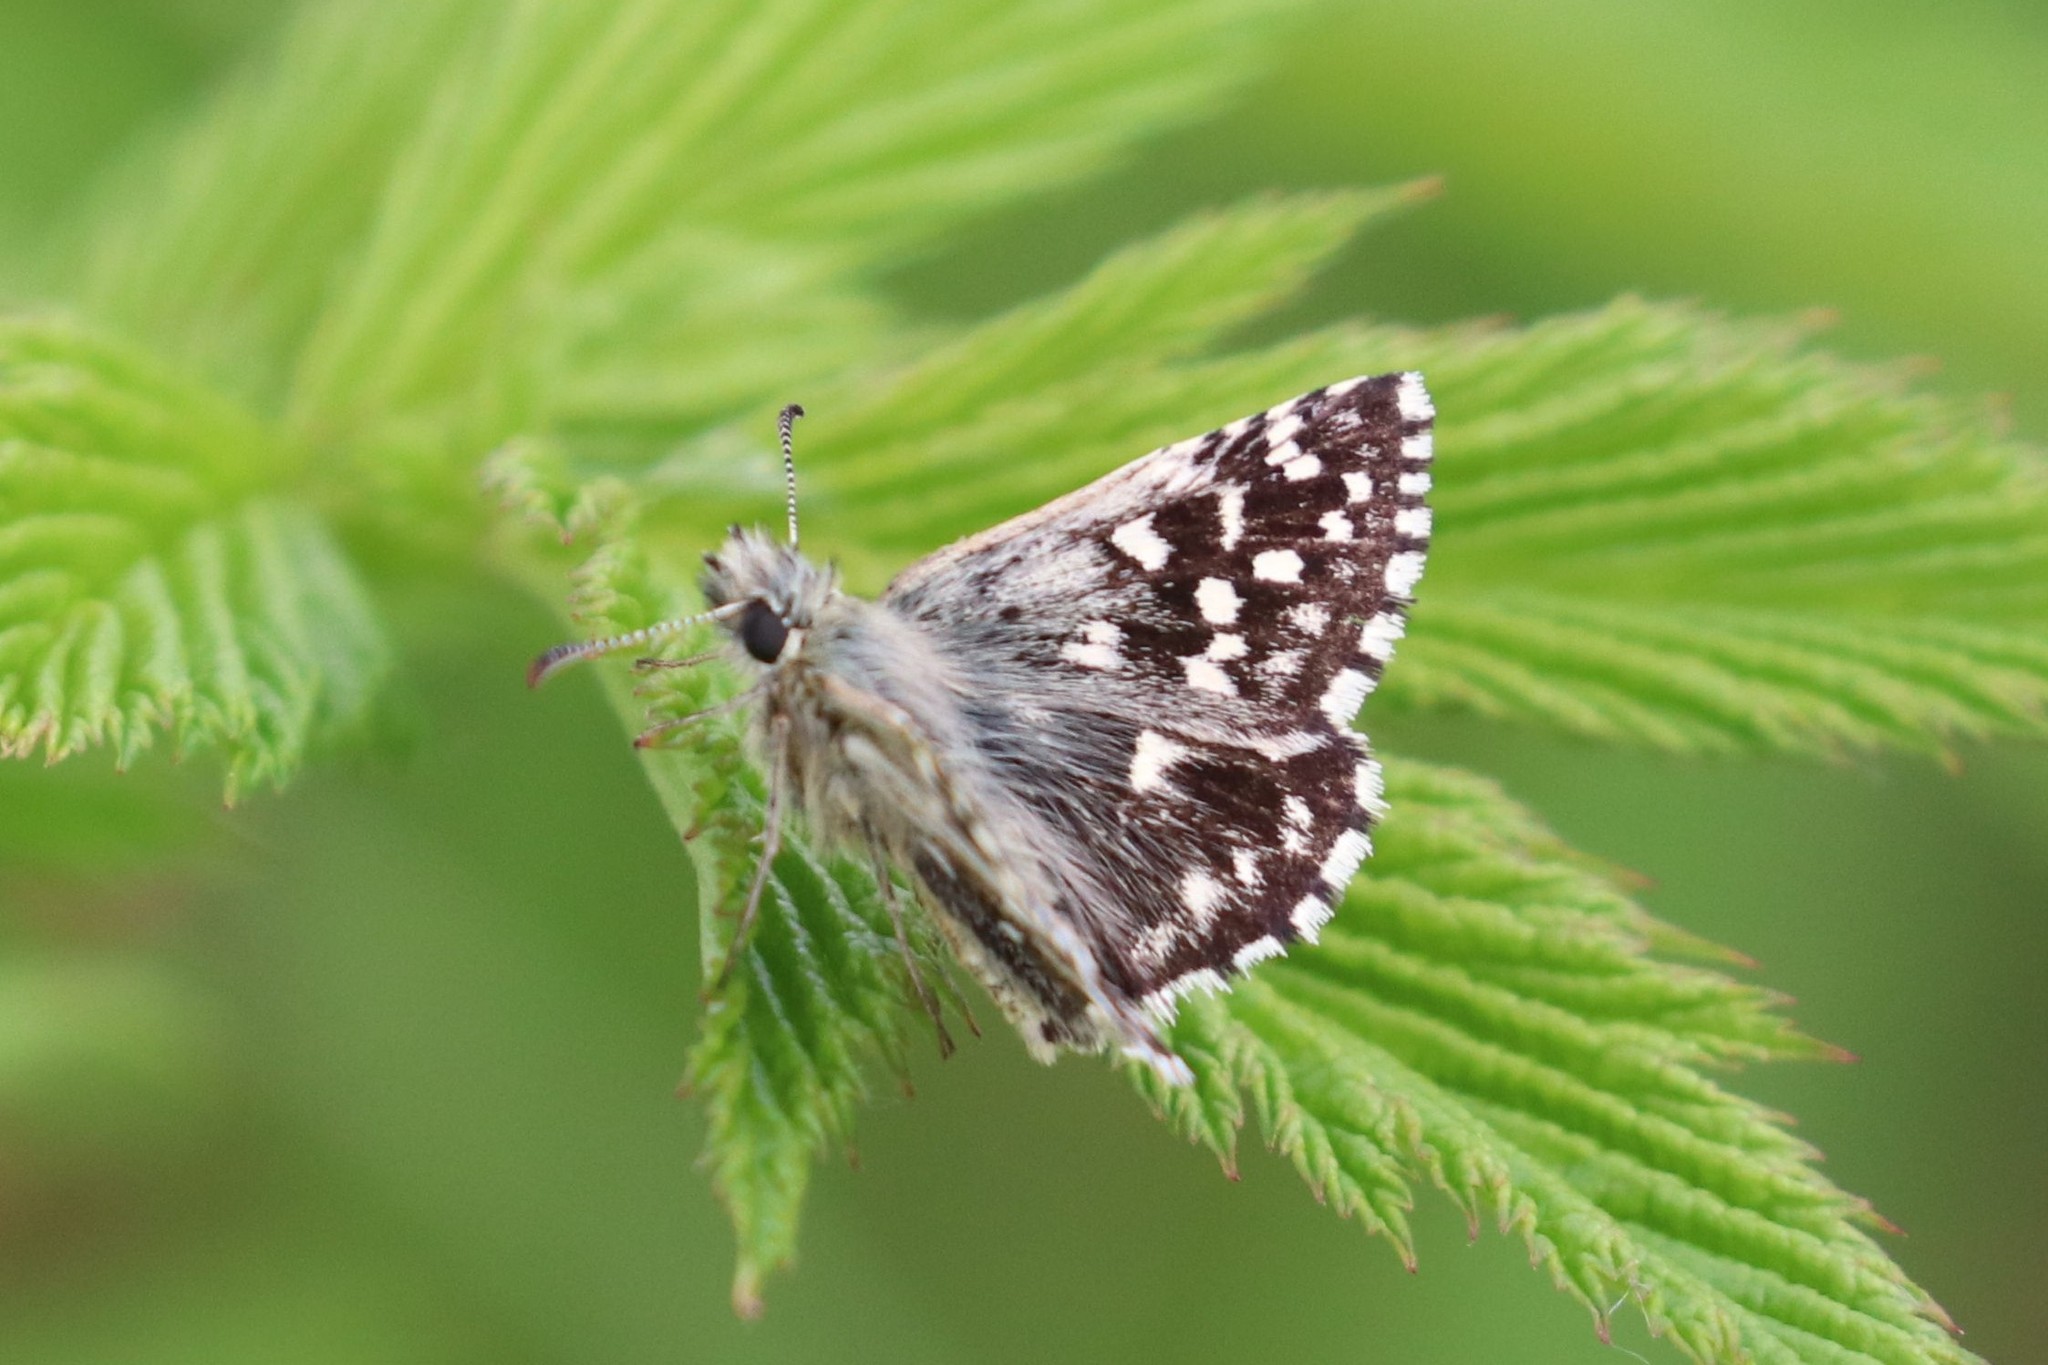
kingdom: Animalia
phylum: Arthropoda
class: Insecta
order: Lepidoptera
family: Hesperiidae
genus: Pyrgus
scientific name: Pyrgus malvae
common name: Grizzled skipper
